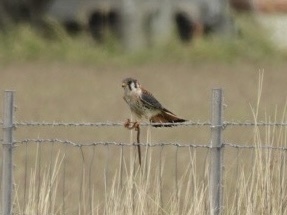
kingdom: Animalia
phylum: Chordata
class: Aves
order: Falconiformes
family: Falconidae
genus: Falco
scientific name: Falco sparverius
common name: American kestrel
